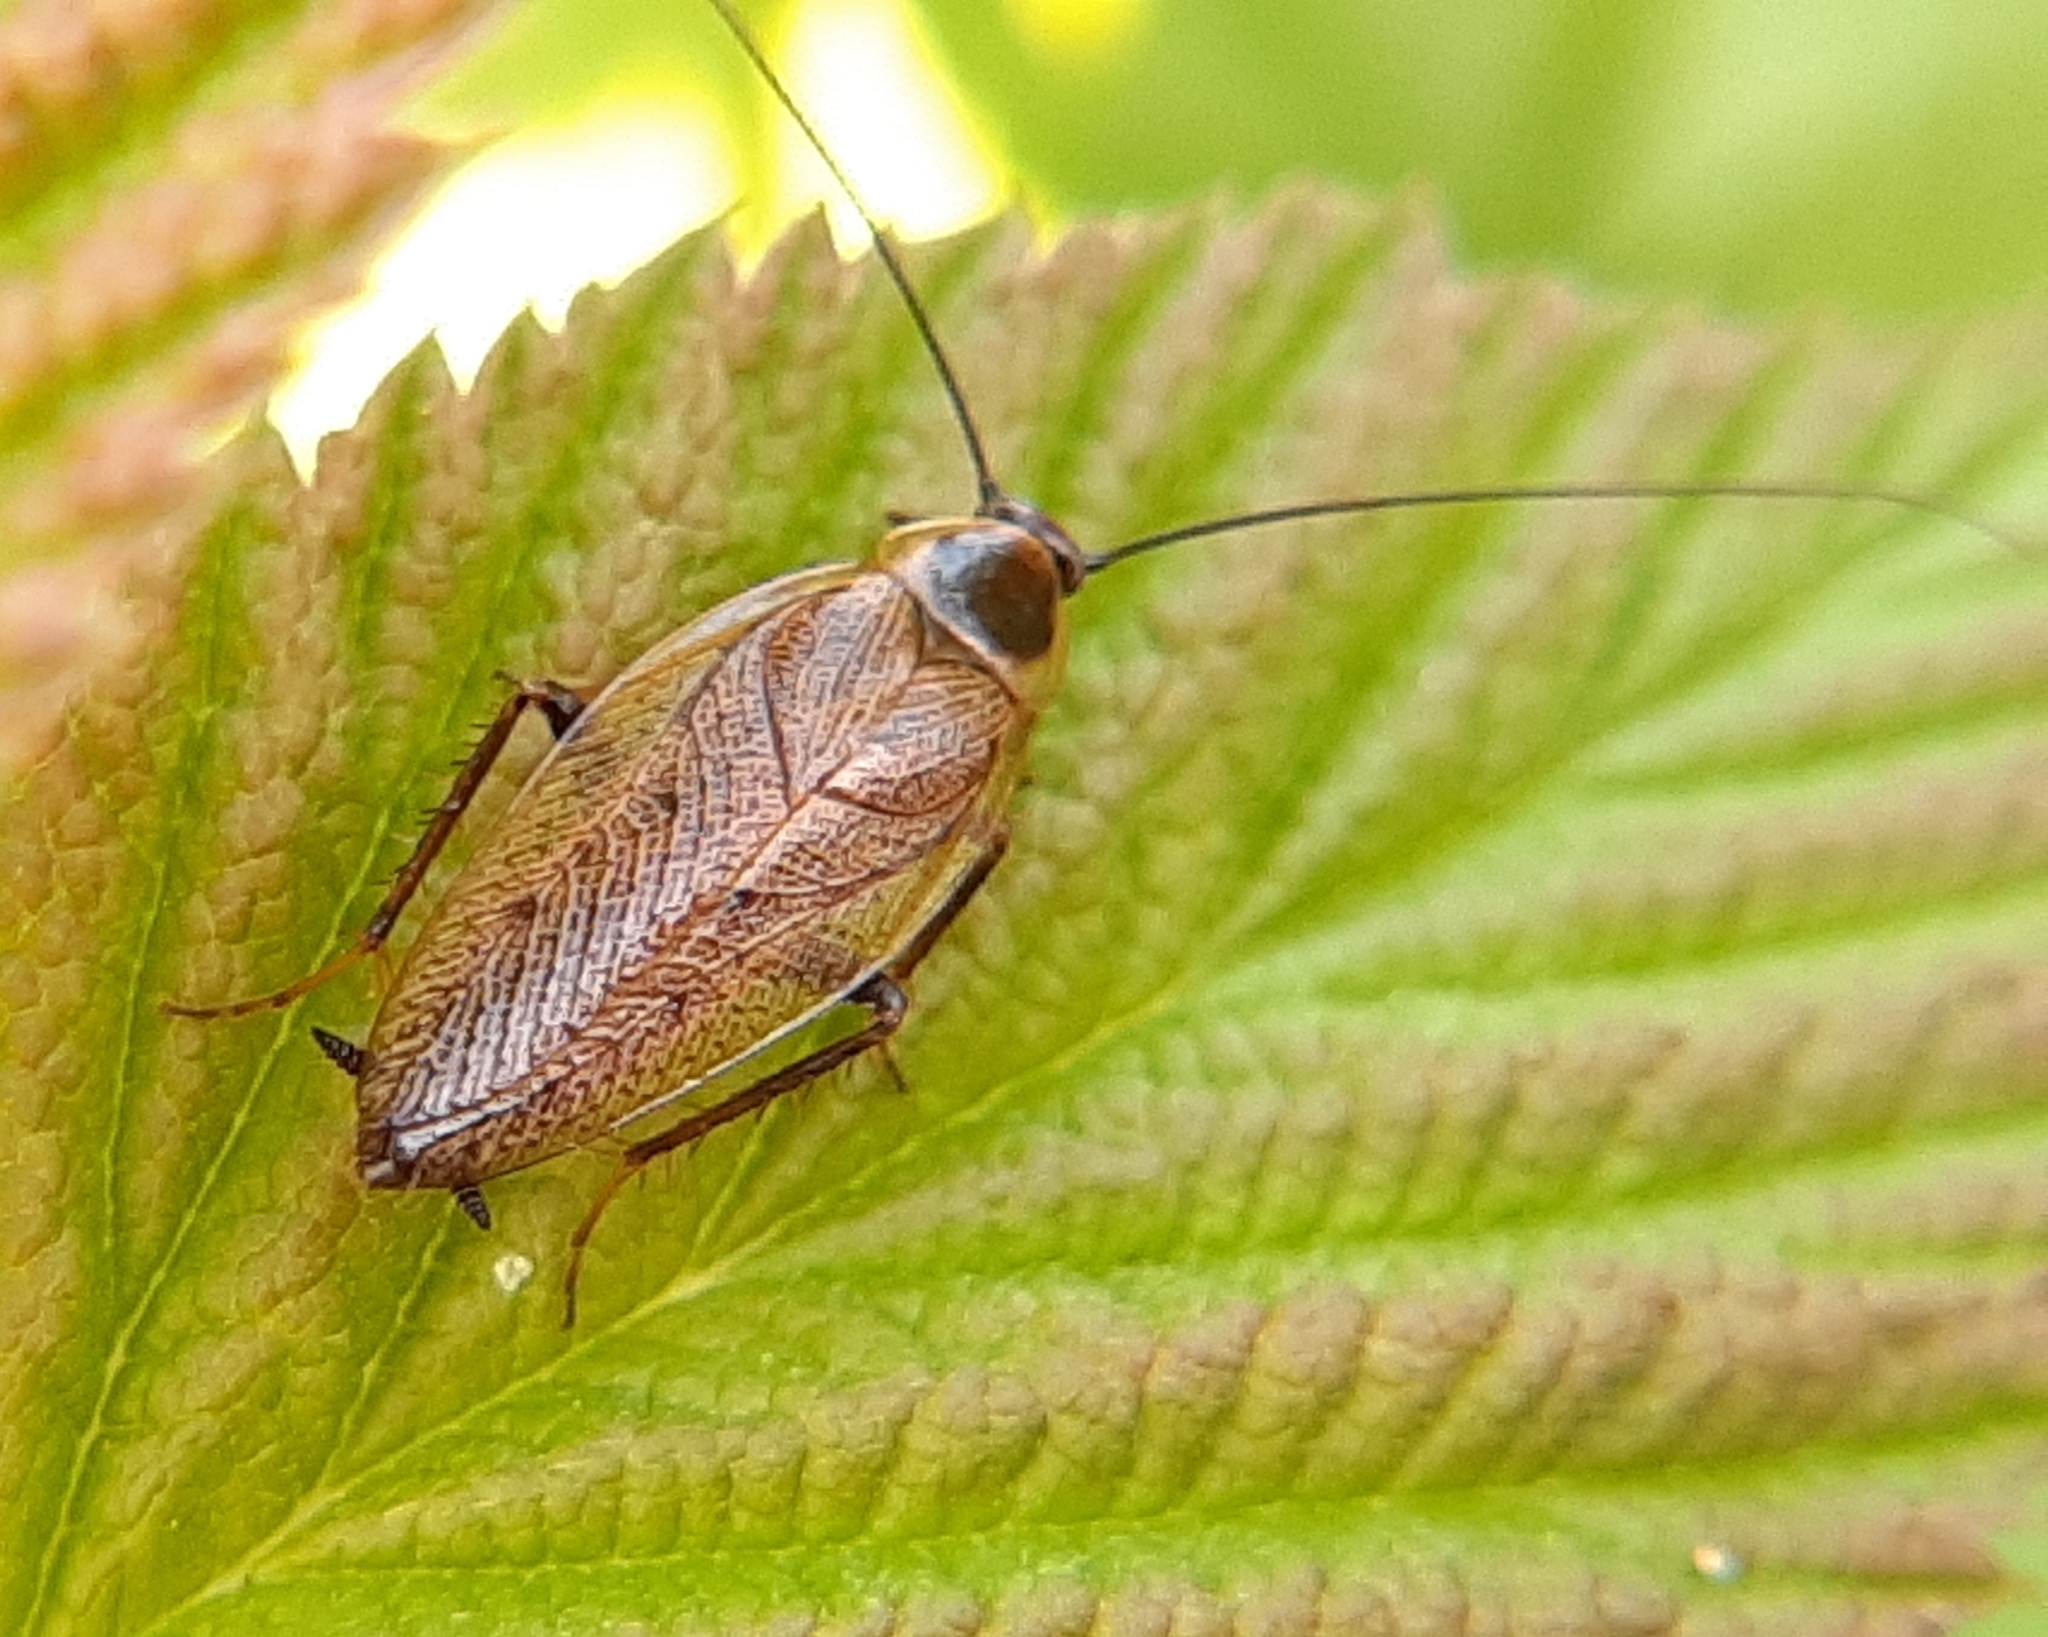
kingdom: Animalia
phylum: Arthropoda
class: Insecta
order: Blattodea
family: Ectobiidae
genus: Ectobius
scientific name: Ectobius lapponicus
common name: Dusky cockroach
